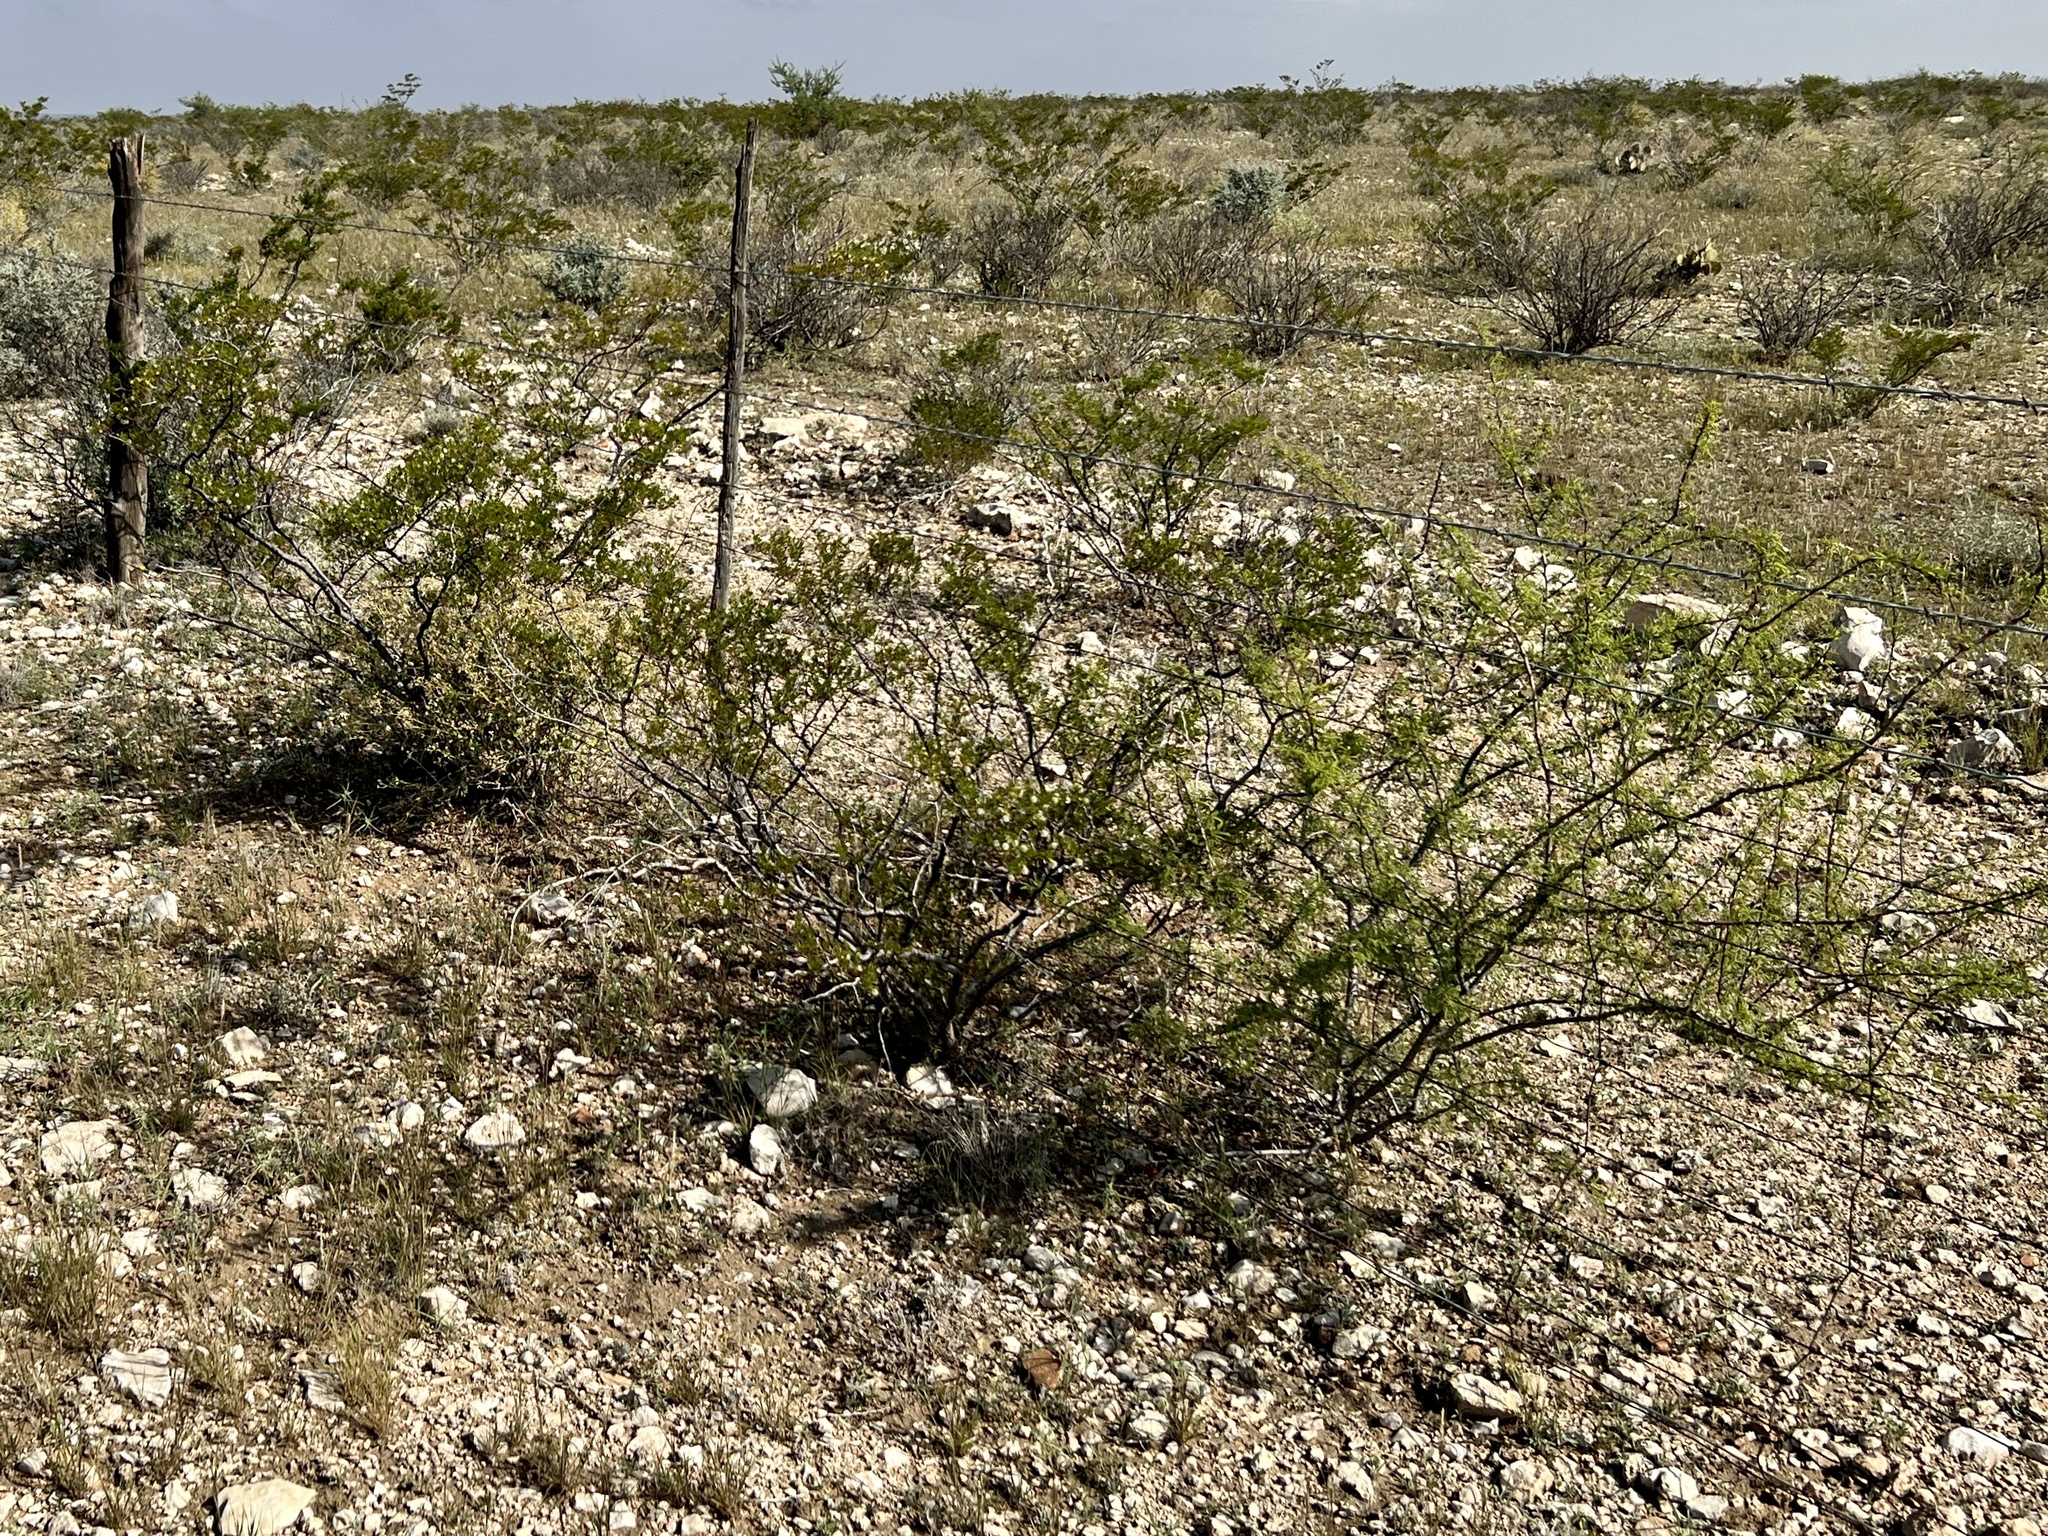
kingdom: Plantae
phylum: Tracheophyta
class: Magnoliopsida
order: Zygophyllales
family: Zygophyllaceae
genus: Larrea
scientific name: Larrea tridentata
